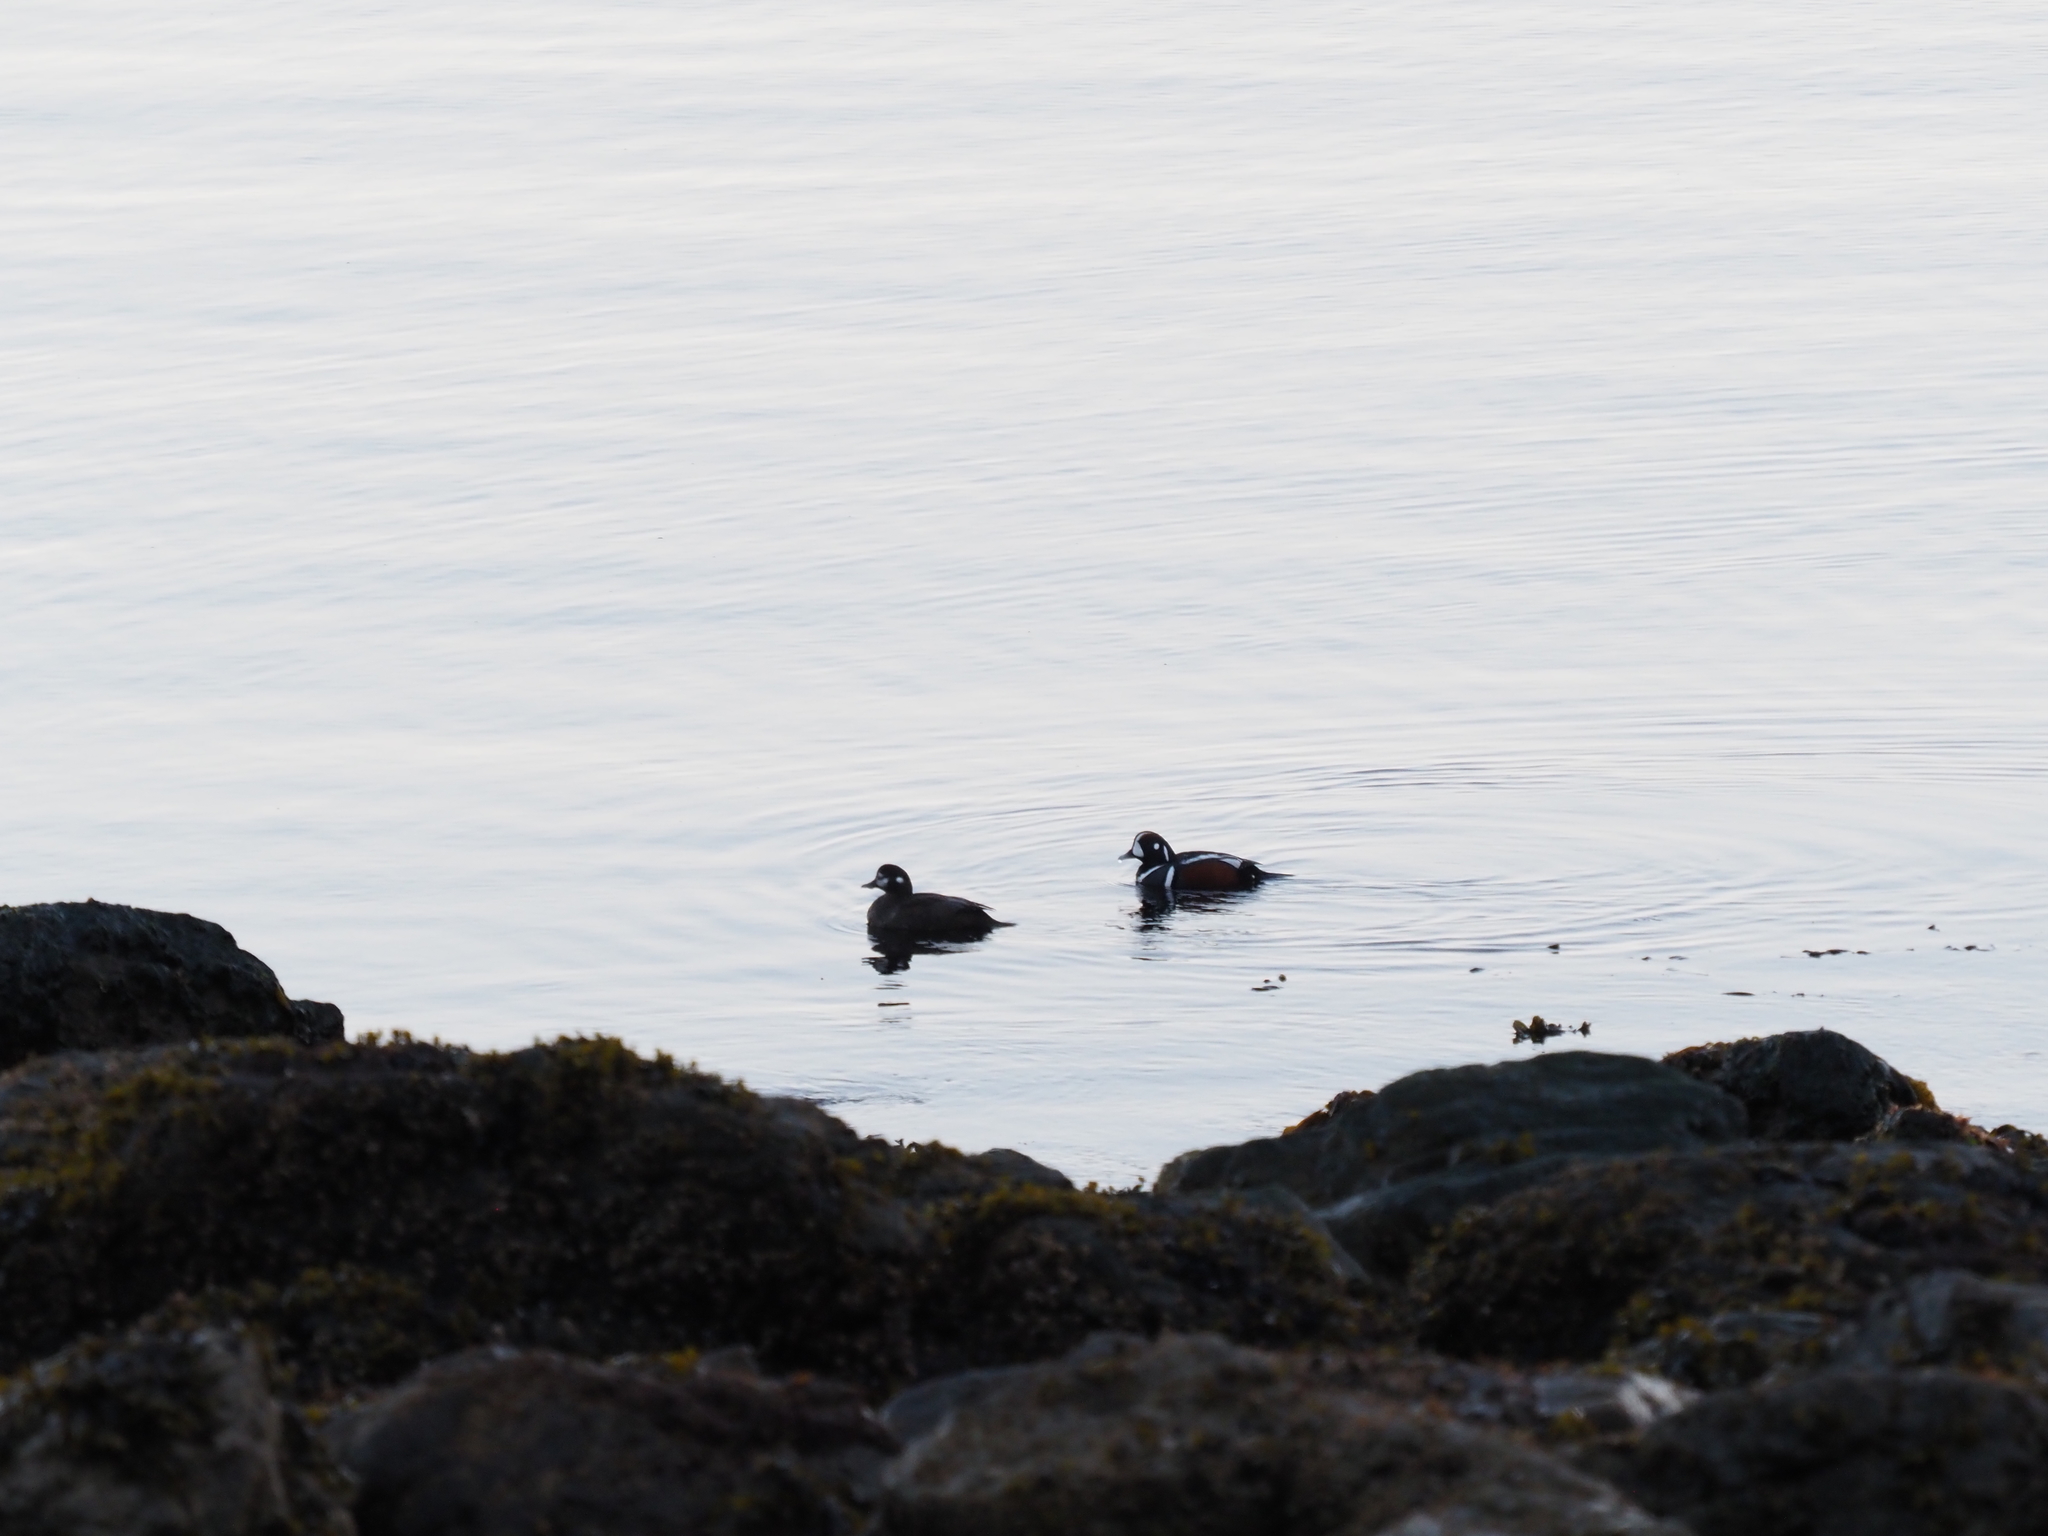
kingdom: Animalia
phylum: Chordata
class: Aves
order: Anseriformes
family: Anatidae
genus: Histrionicus
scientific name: Histrionicus histrionicus
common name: Harlequin duck
